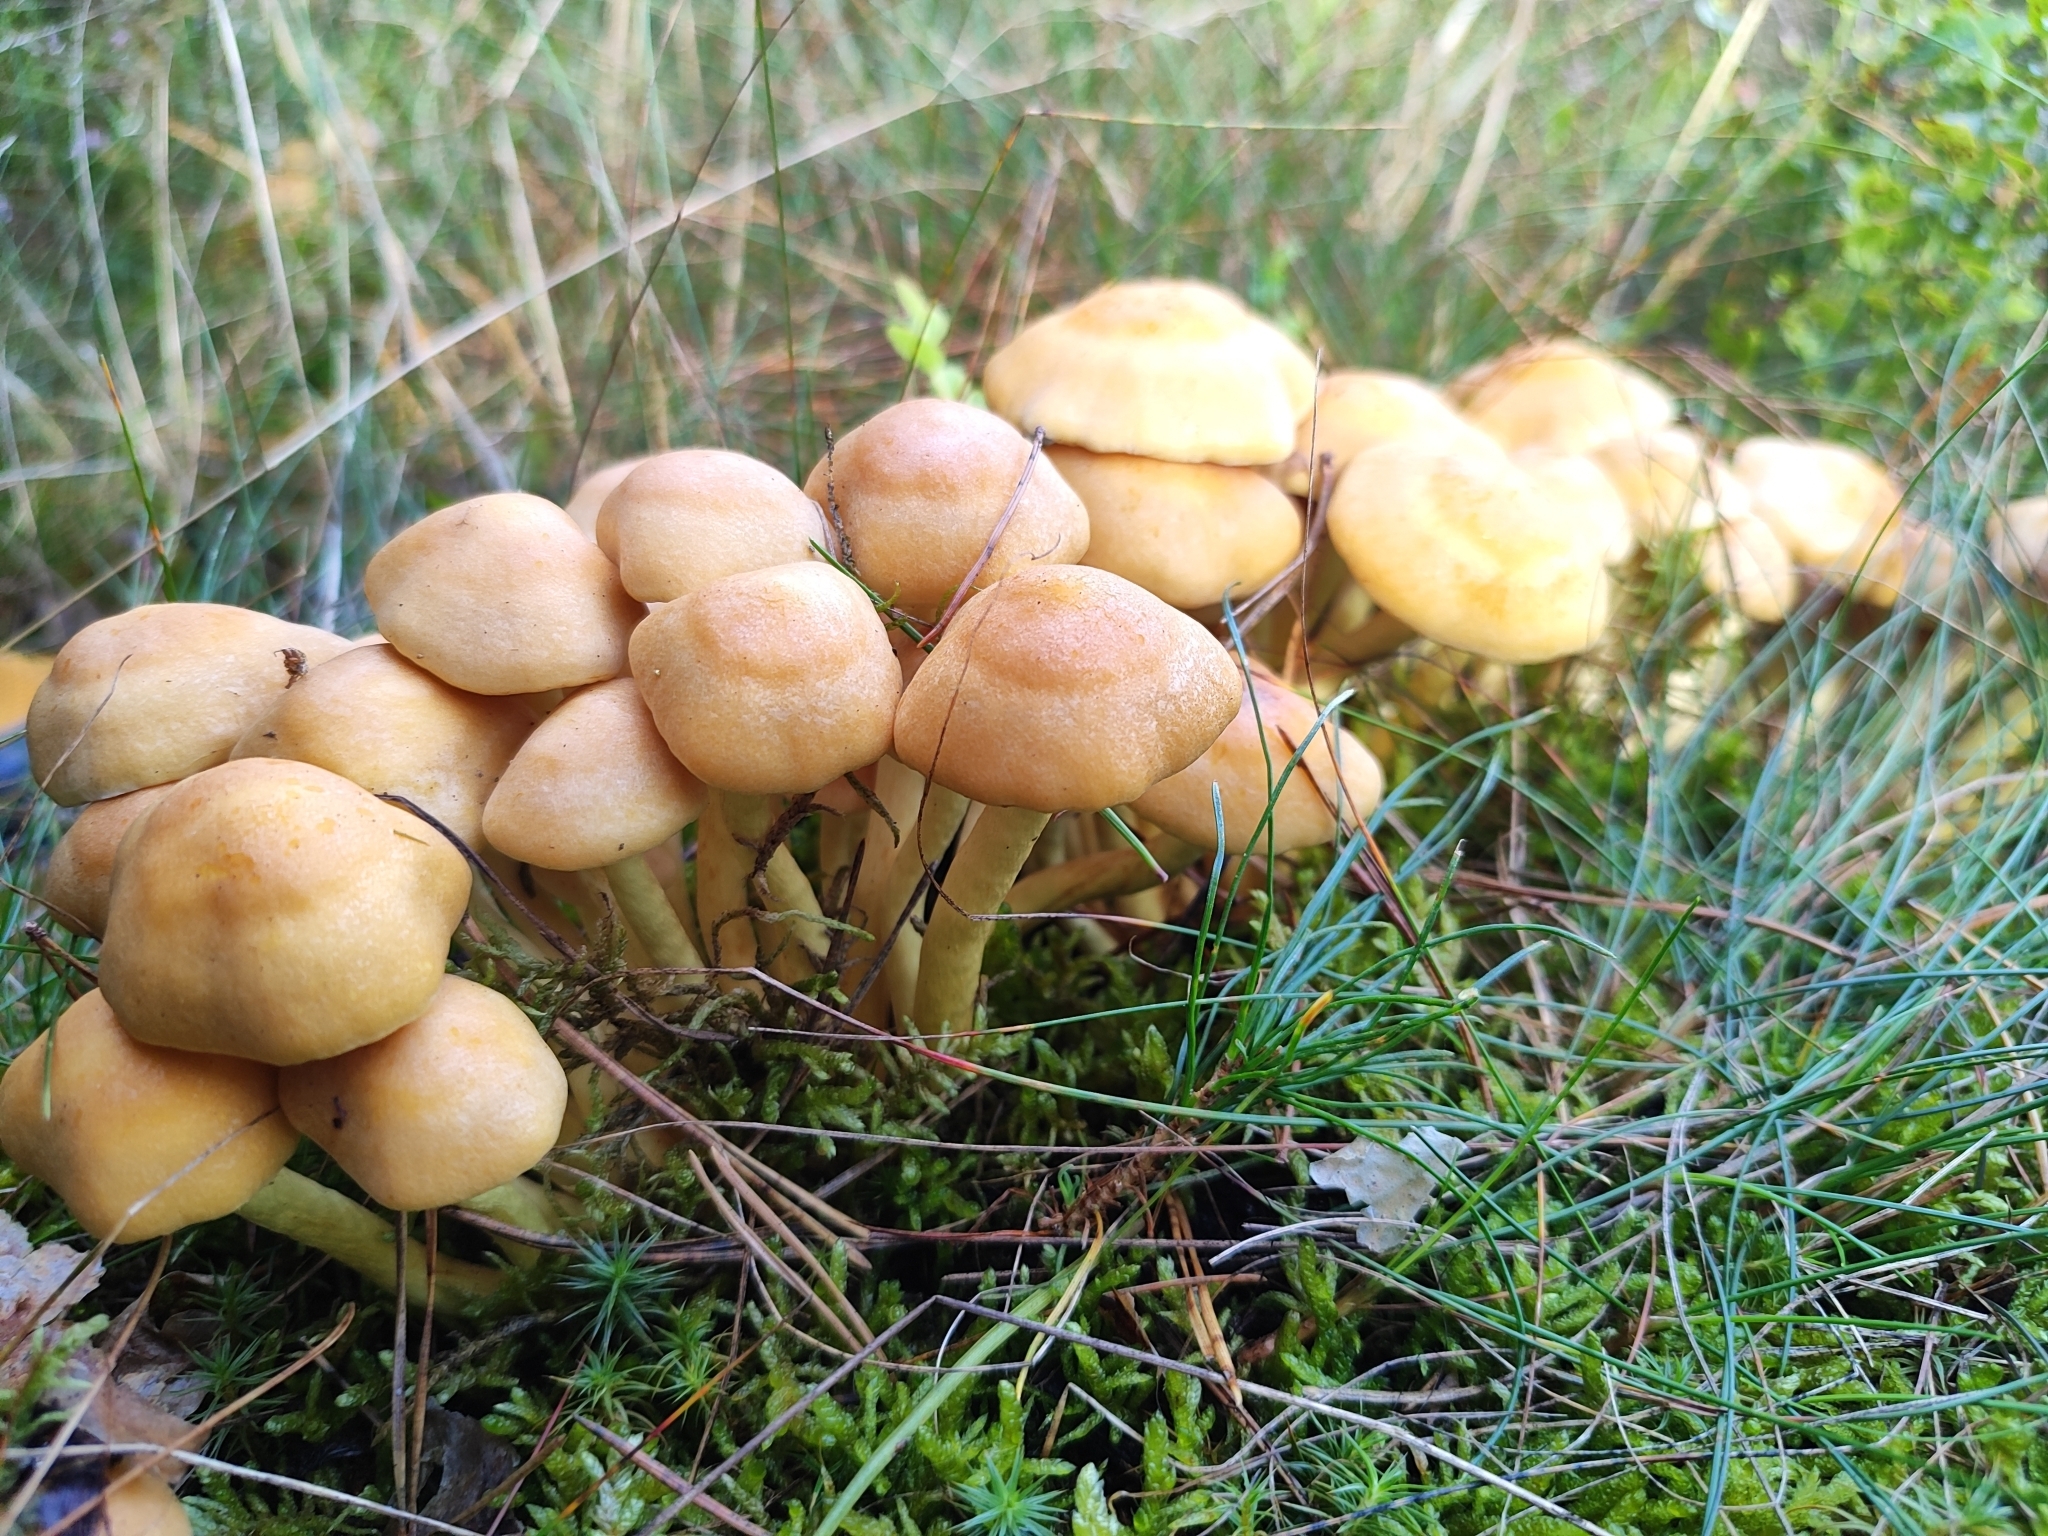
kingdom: Fungi
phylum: Basidiomycota
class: Agaricomycetes
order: Agaricales
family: Strophariaceae
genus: Hypholoma
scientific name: Hypholoma fasciculare
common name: Sulphur tuft
